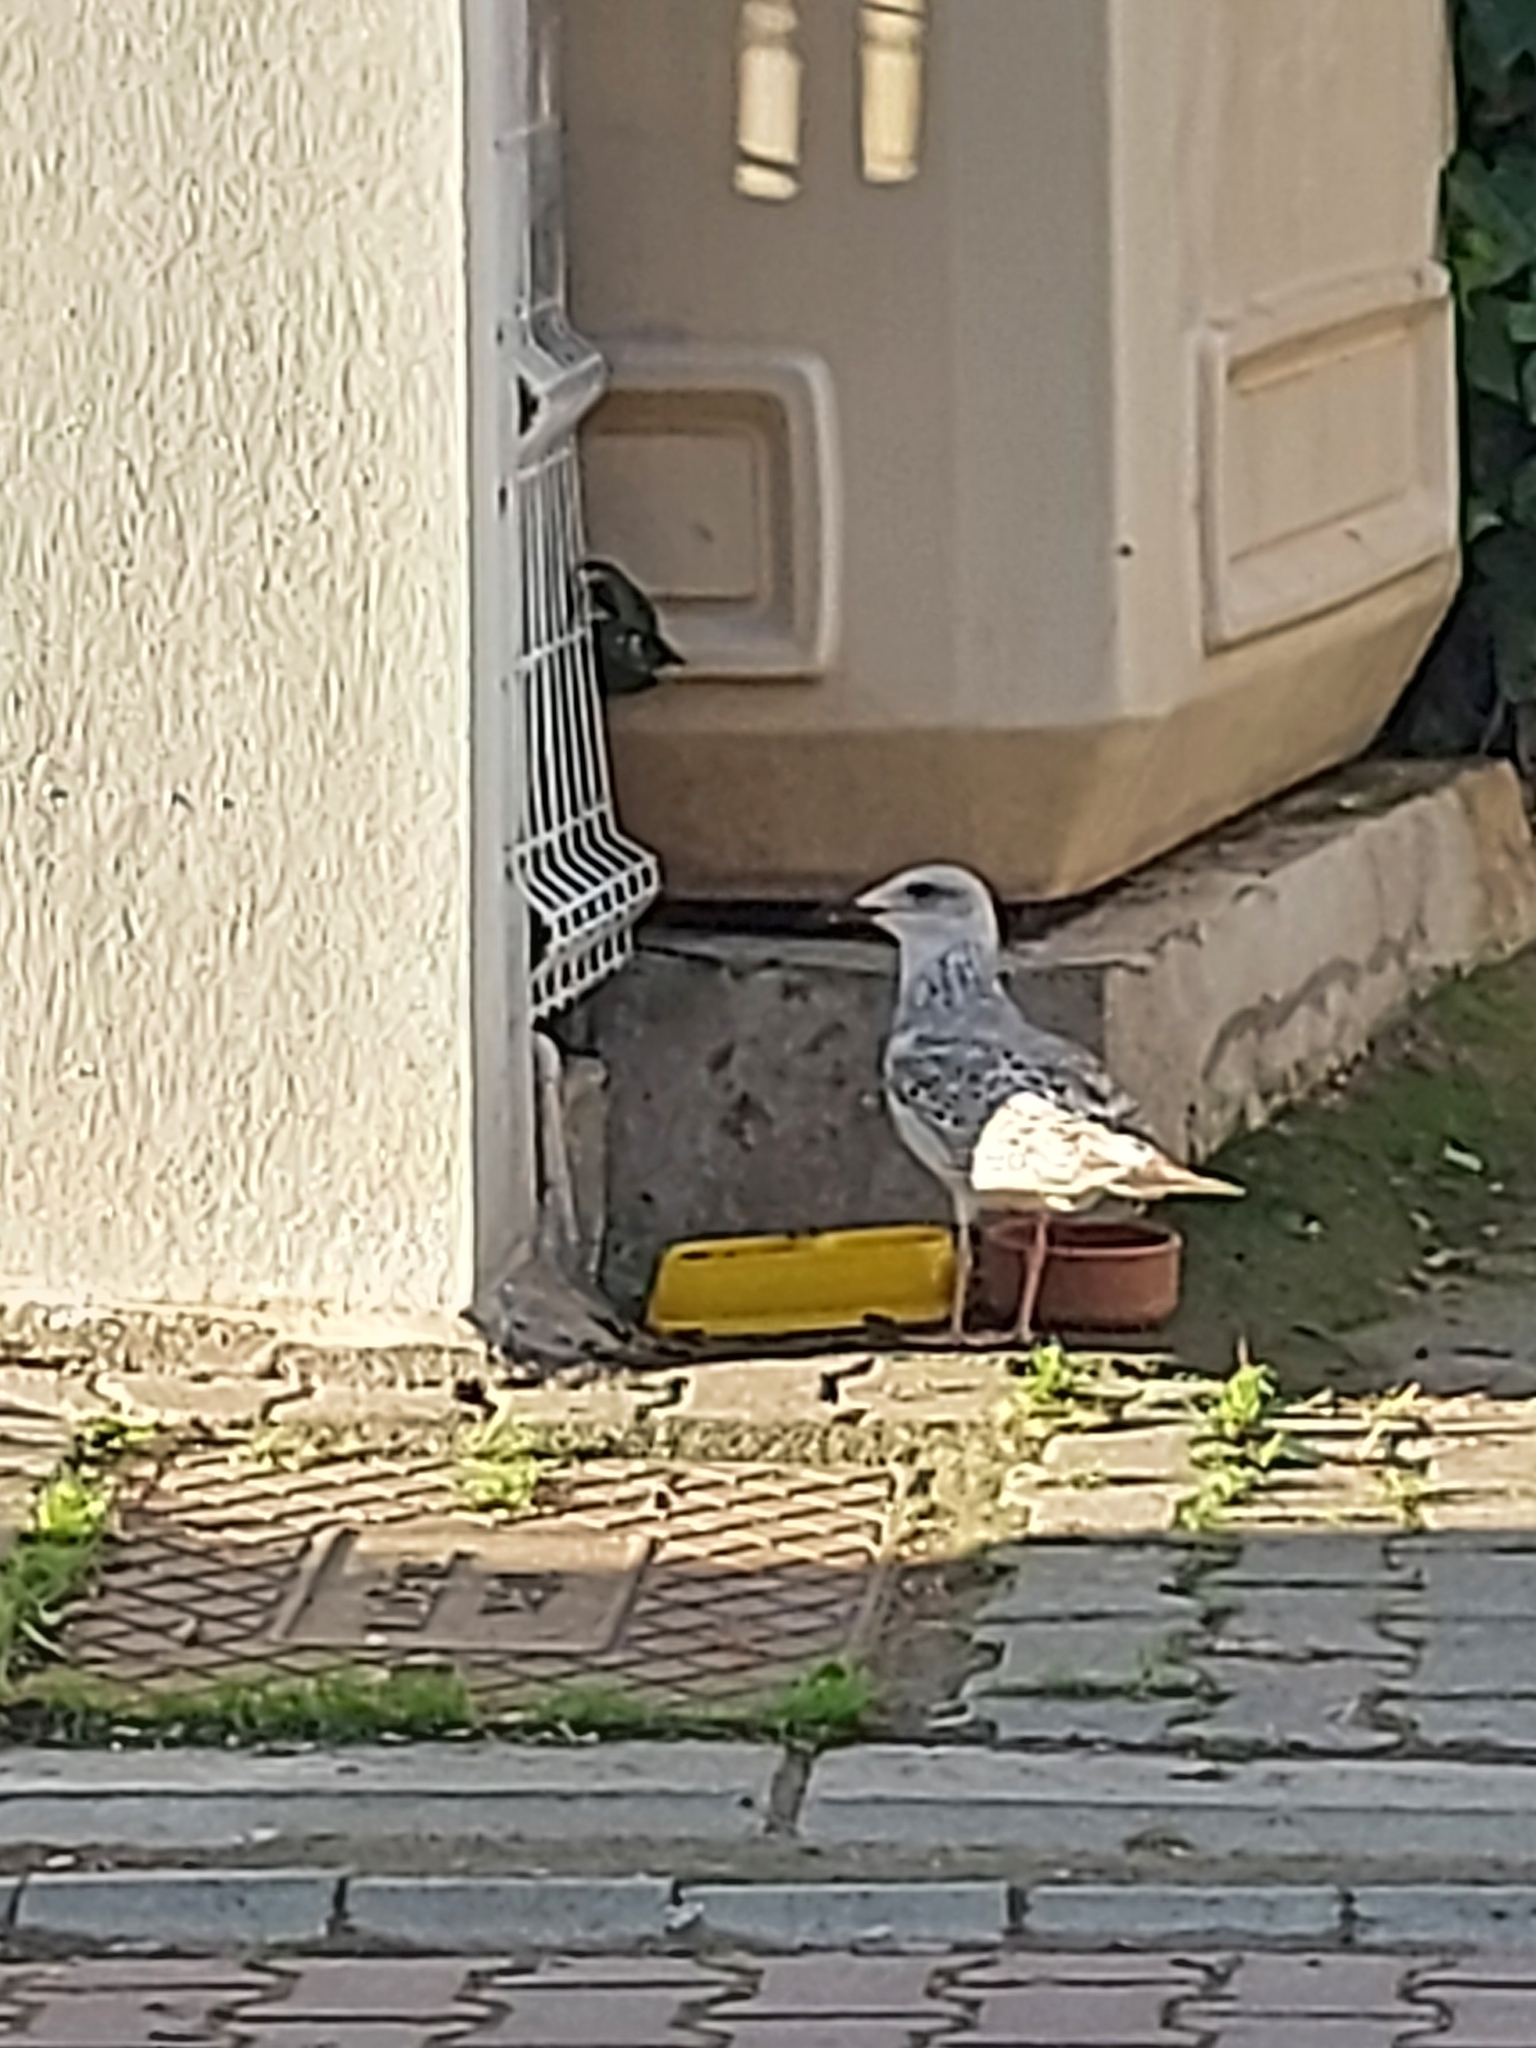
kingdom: Animalia
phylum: Chordata
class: Aves
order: Charadriiformes
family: Laridae
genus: Larus
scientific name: Larus michahellis
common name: Yellow-legged gull
